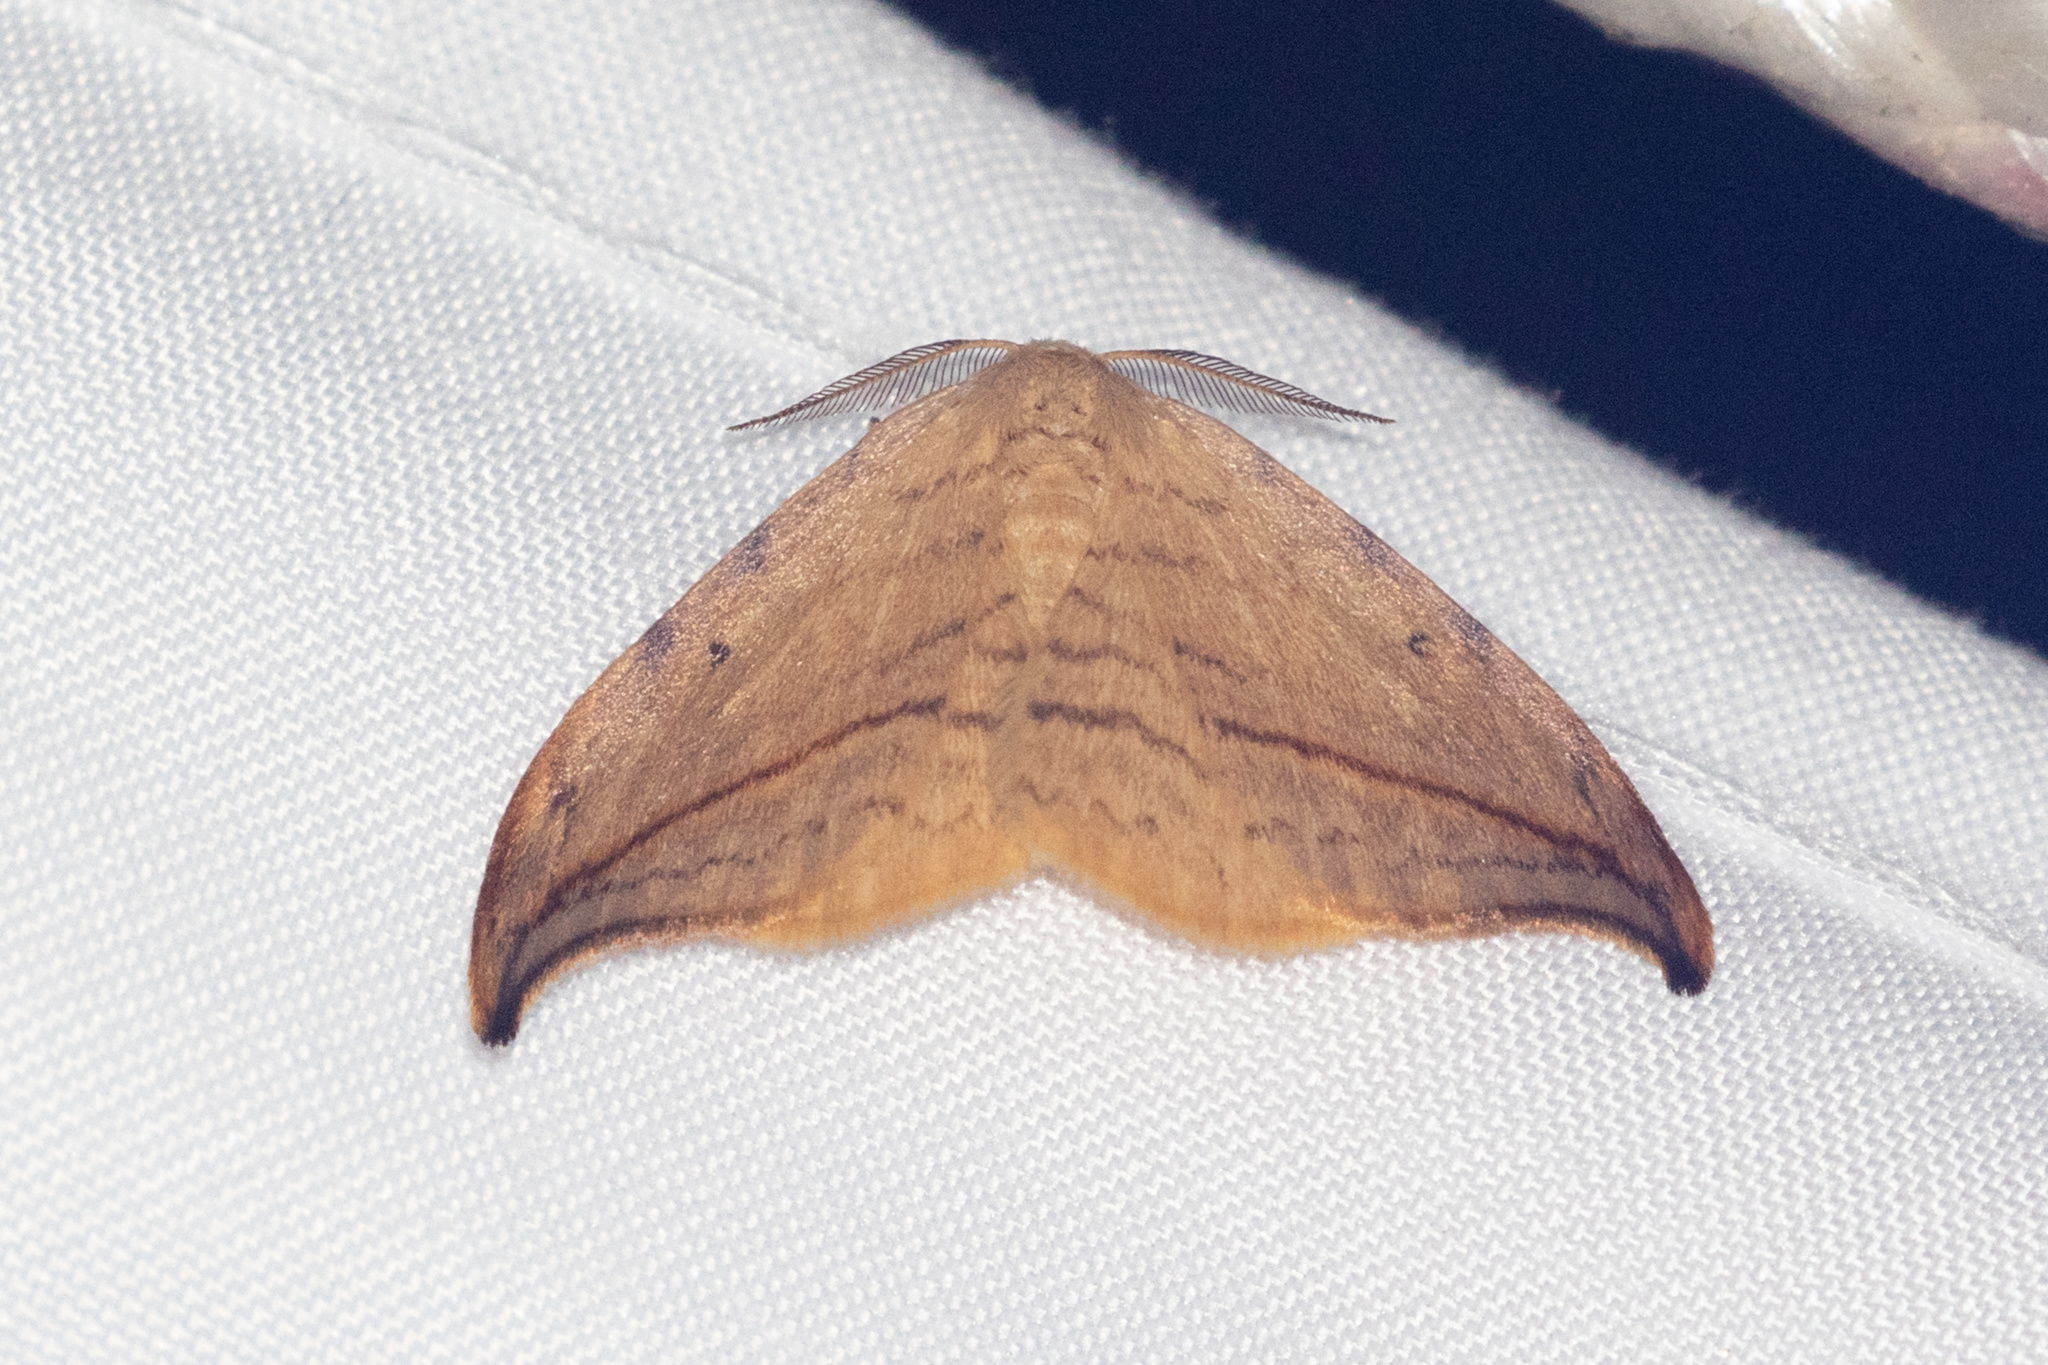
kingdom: Animalia
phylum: Arthropoda
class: Insecta
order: Lepidoptera
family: Drepanidae
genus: Drepana
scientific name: Drepana arcuata
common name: Arched hooktip moth
